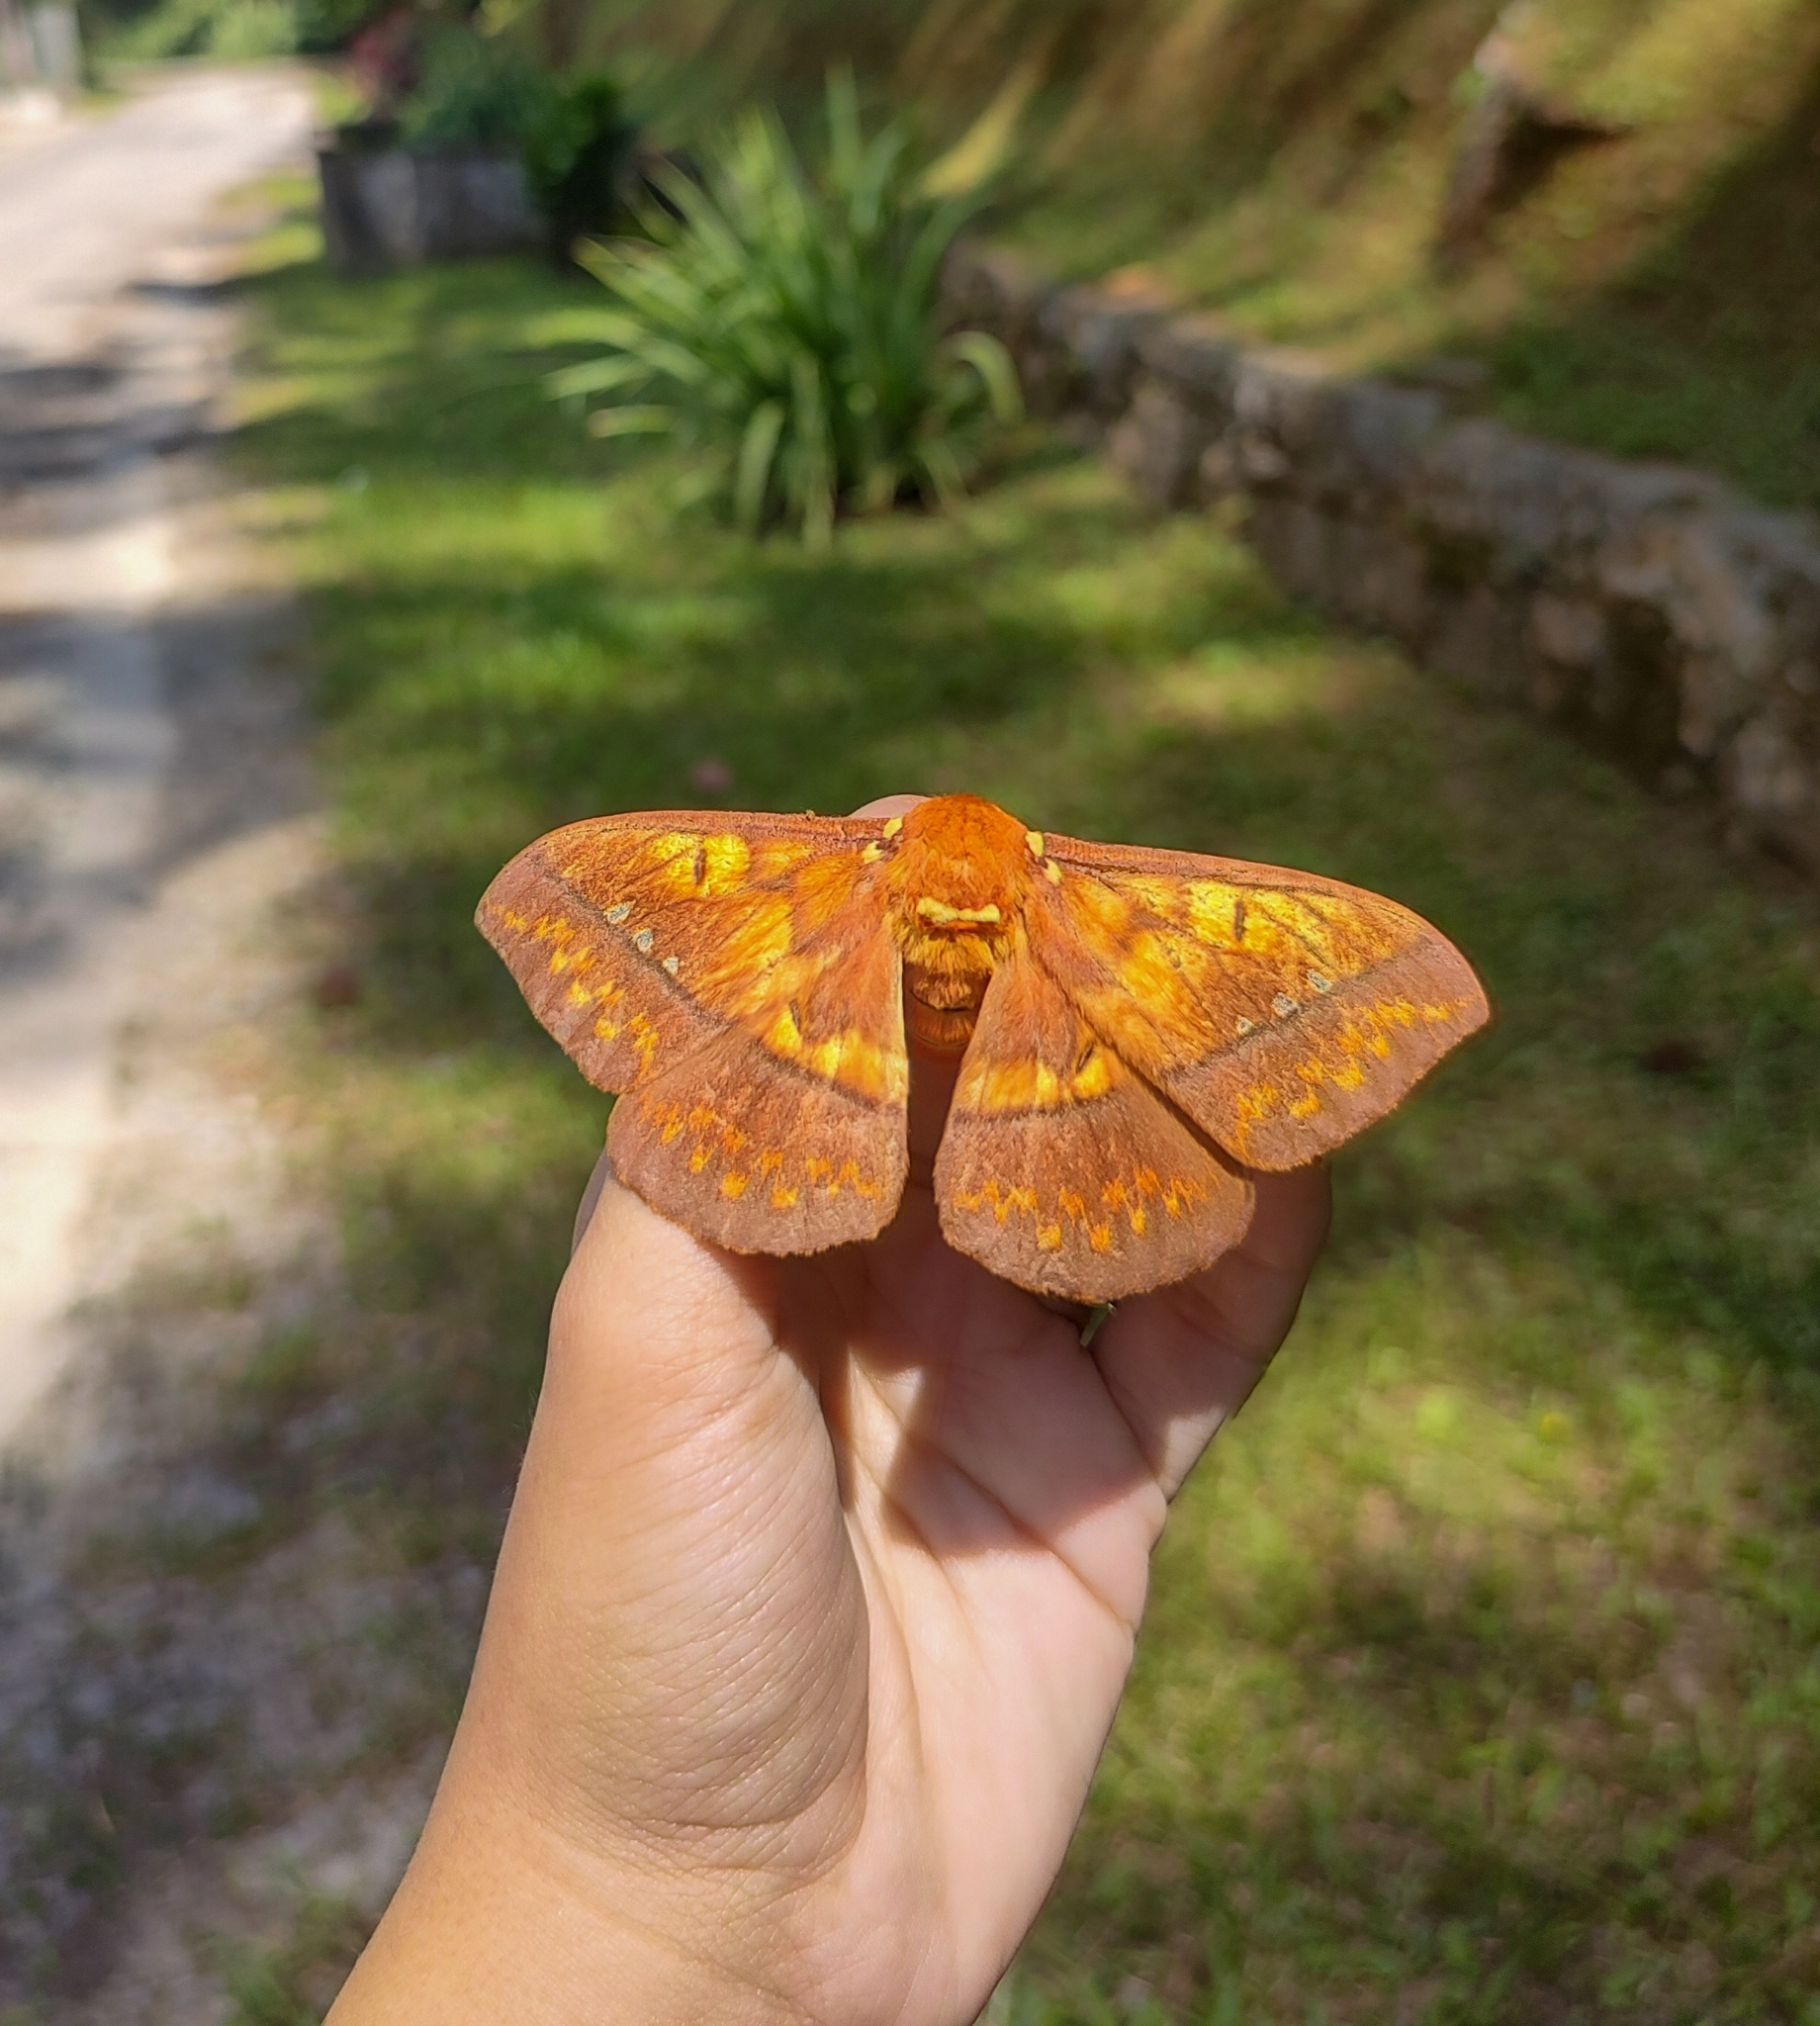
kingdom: Animalia
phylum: Arthropoda
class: Insecta
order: Lepidoptera
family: Saturniidae
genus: Procitheronia
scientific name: Procitheronia principalis
